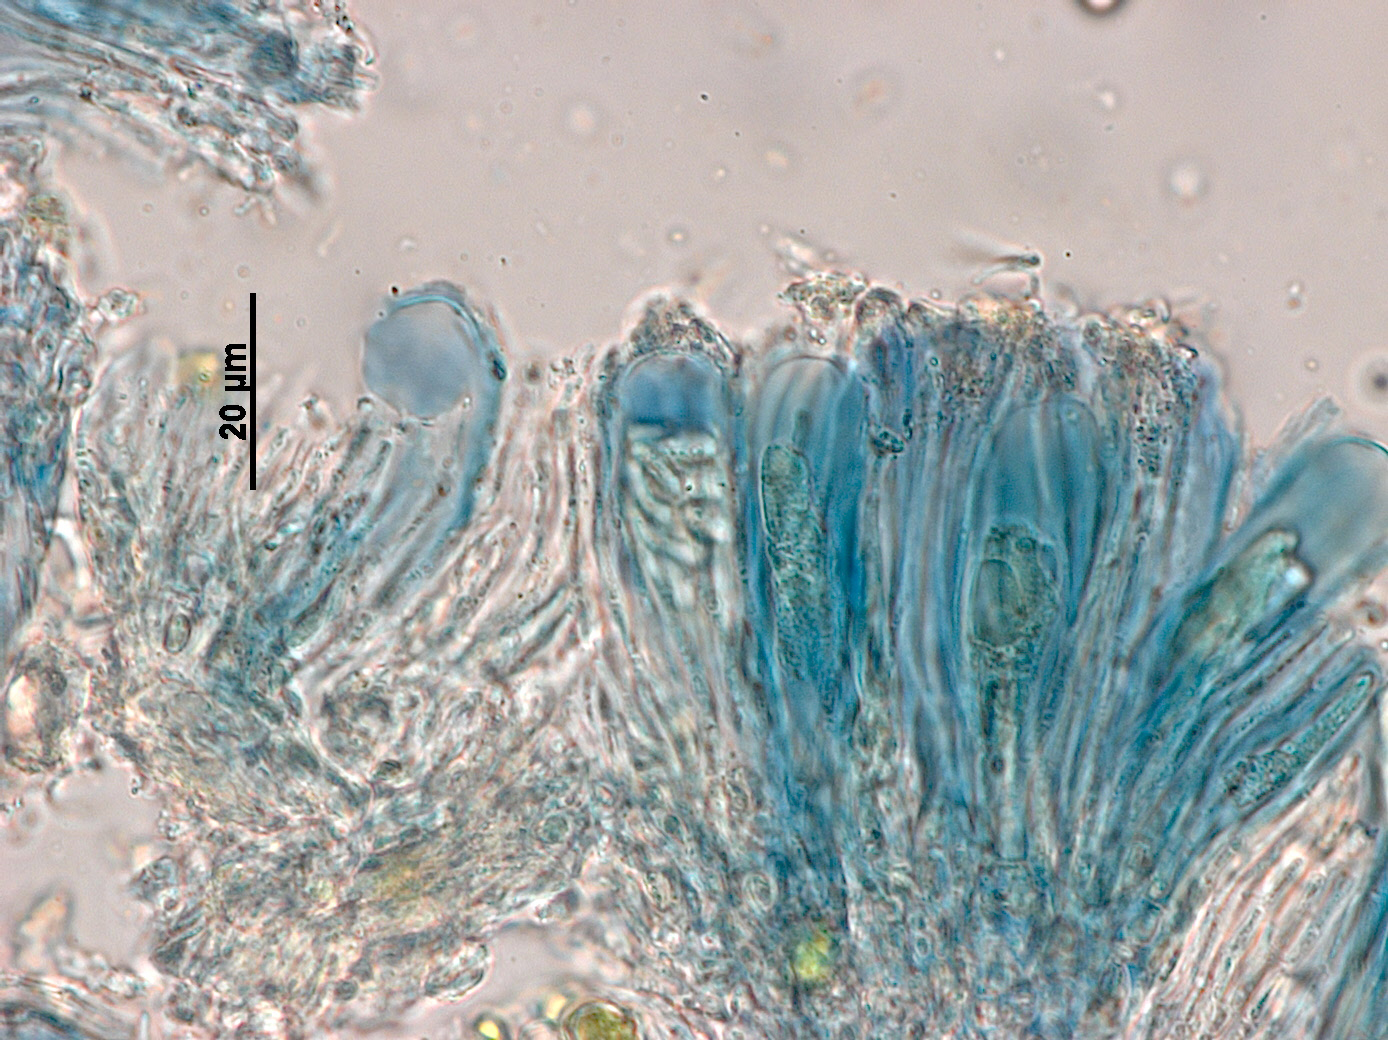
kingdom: Fungi
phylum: Ascomycota
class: Lecanoromycetes
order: Lecanorales
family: Lecanoraceae
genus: Lecanora
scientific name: Lecanora kohu
